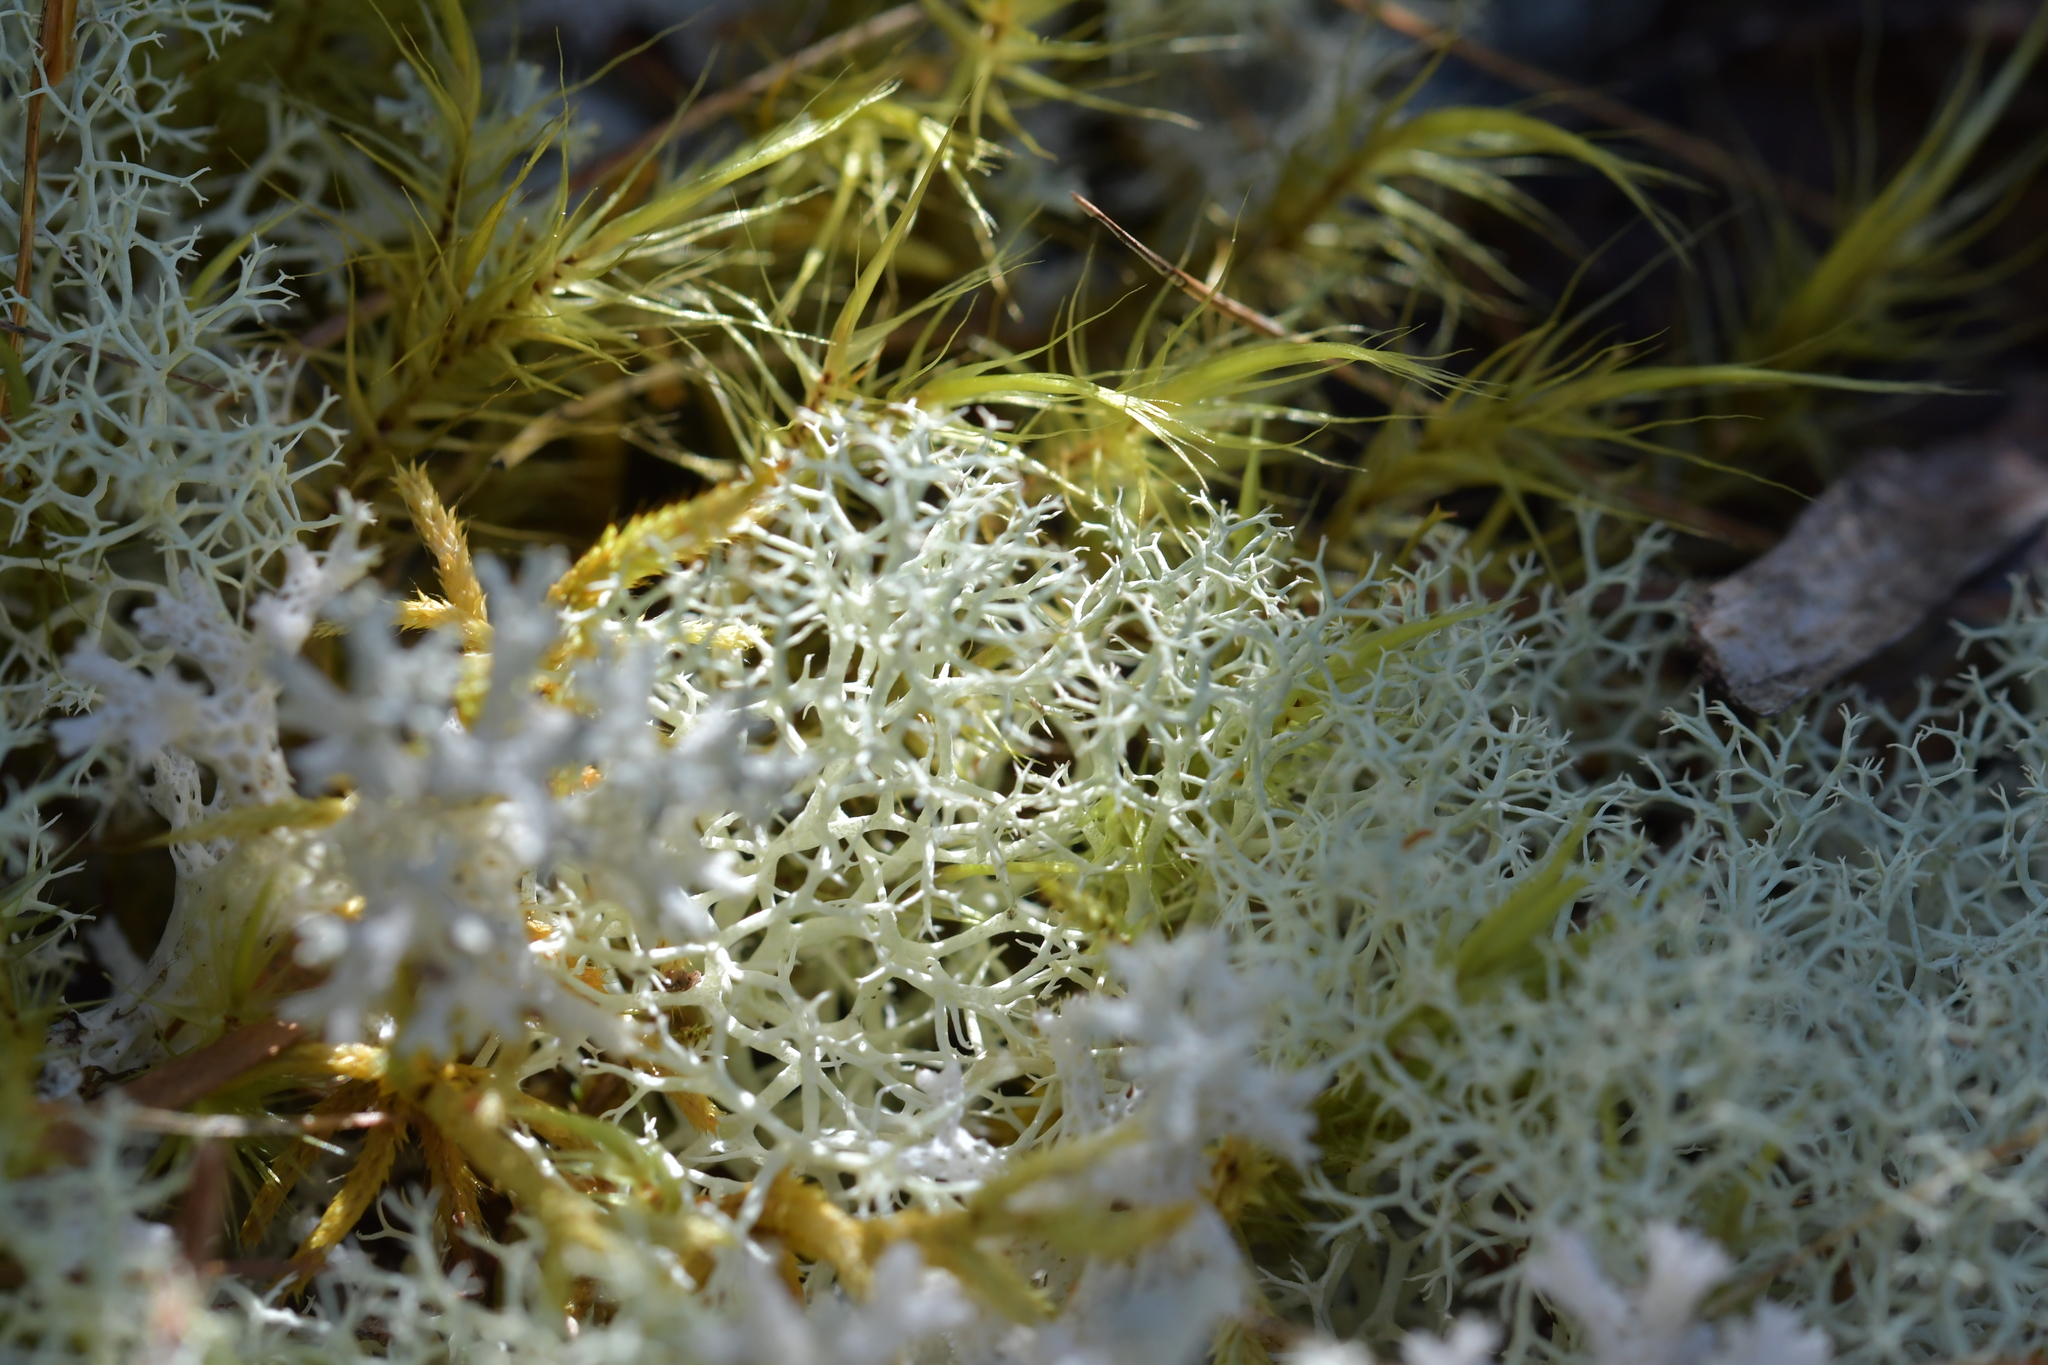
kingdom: Fungi
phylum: Ascomycota
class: Lecanoromycetes
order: Lecanorales
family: Cladoniaceae
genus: Cladonia
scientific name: Cladonia confusa
